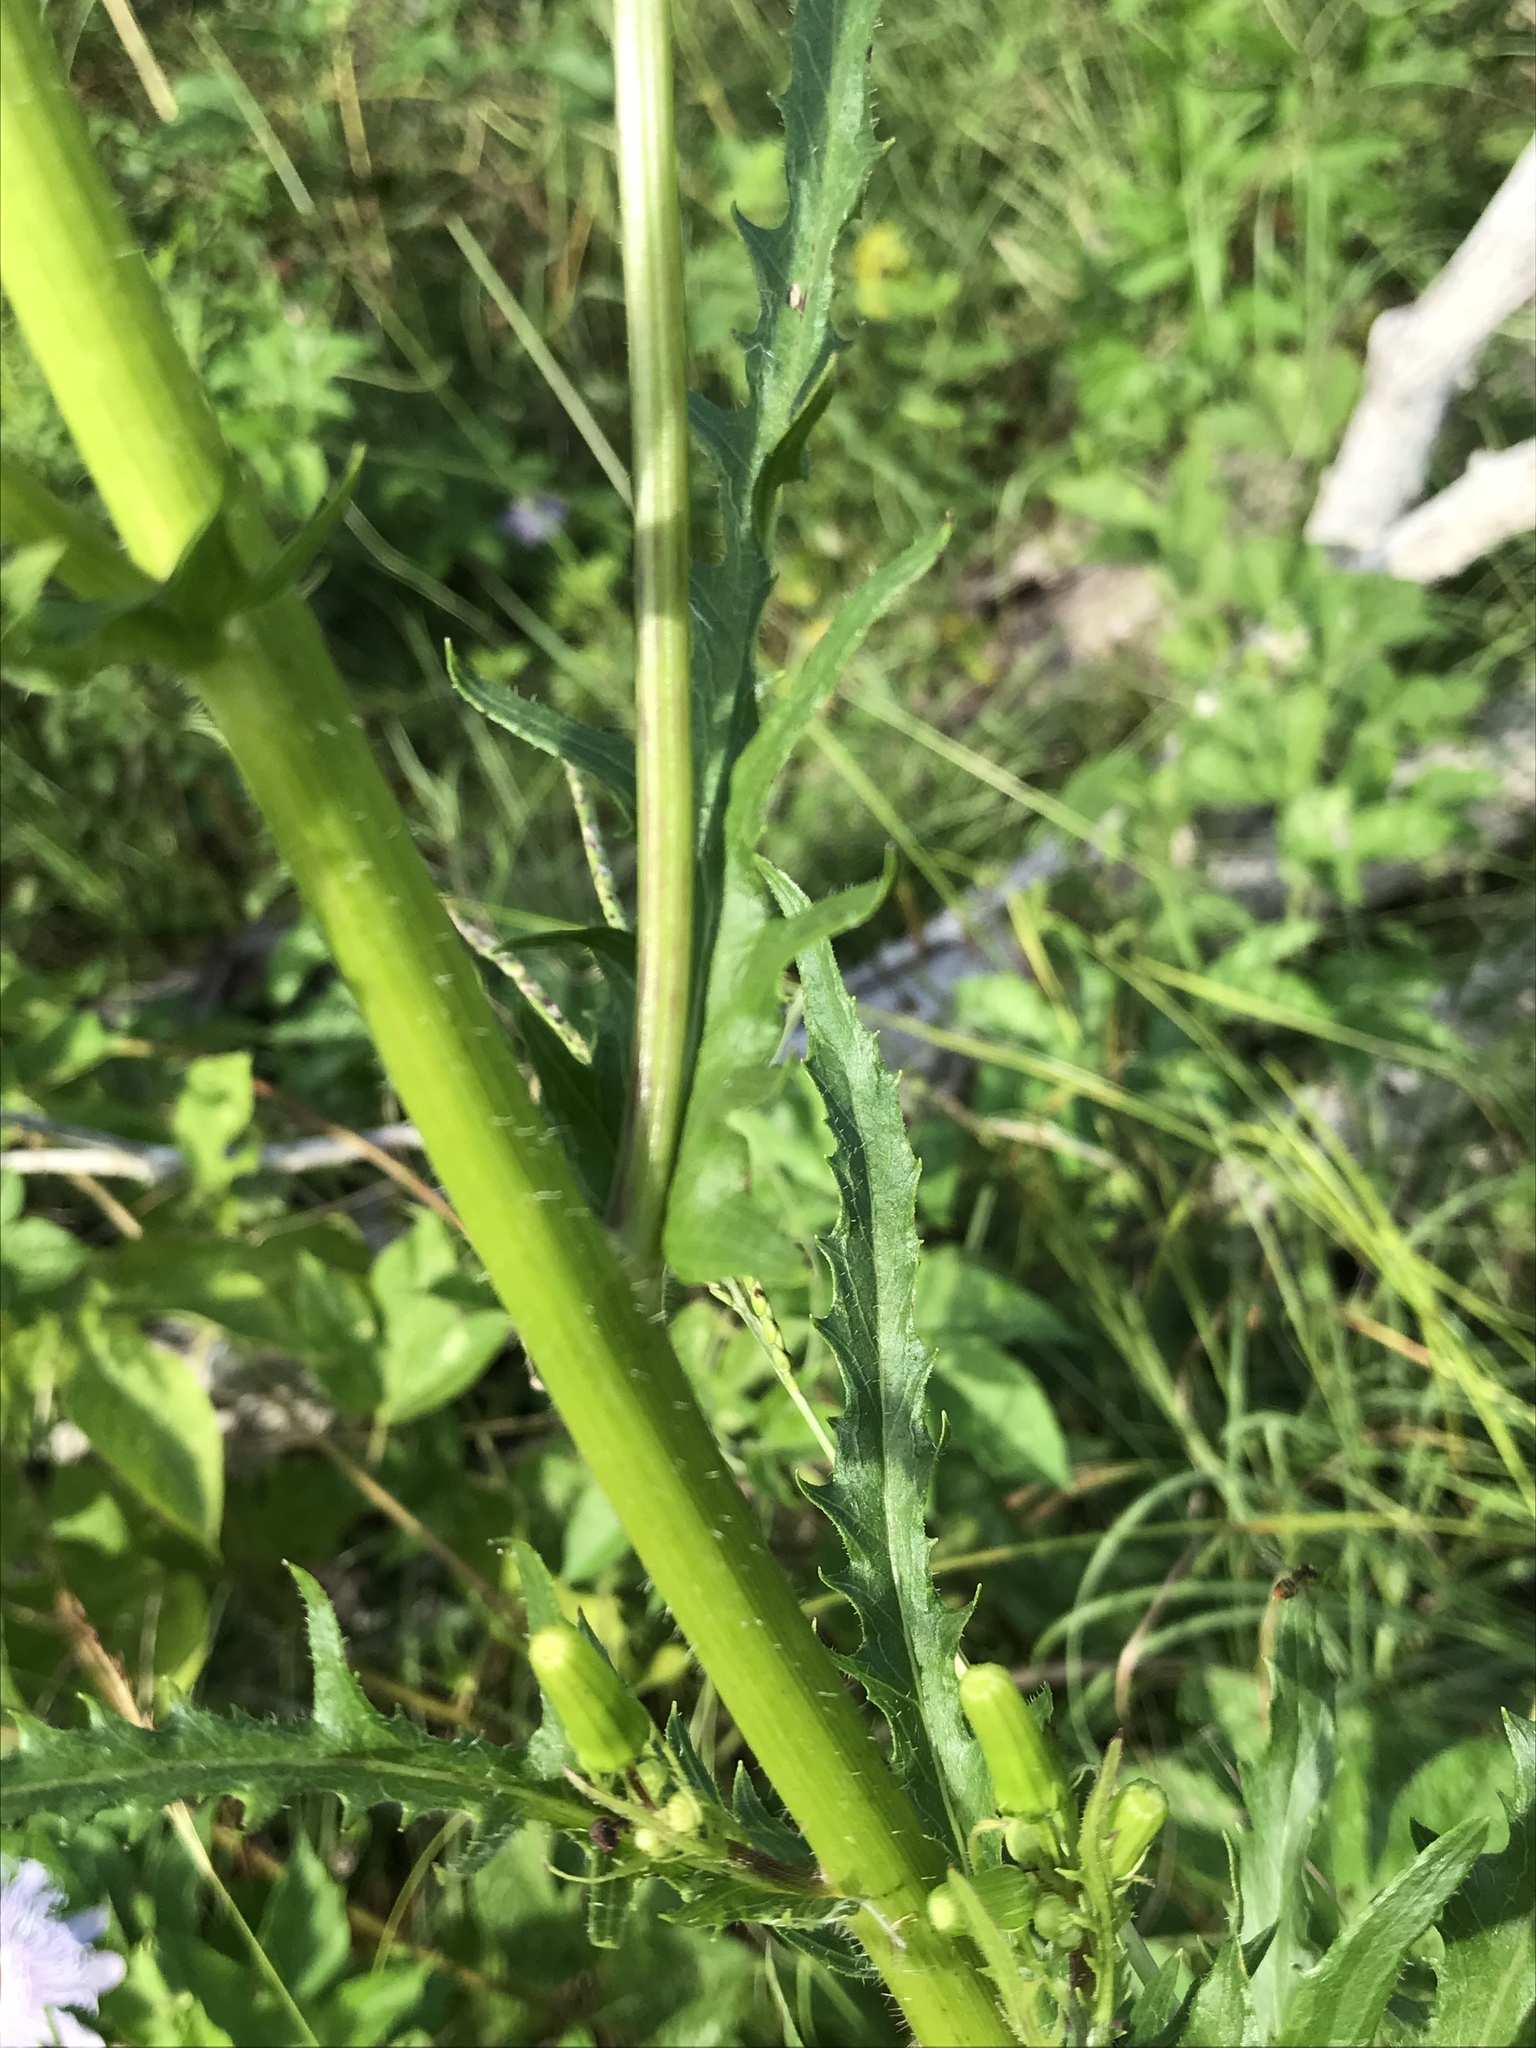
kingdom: Plantae
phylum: Tracheophyta
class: Magnoliopsida
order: Asterales
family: Asteraceae
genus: Erechtites
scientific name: Erechtites hieraciifolius
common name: American burnweed
